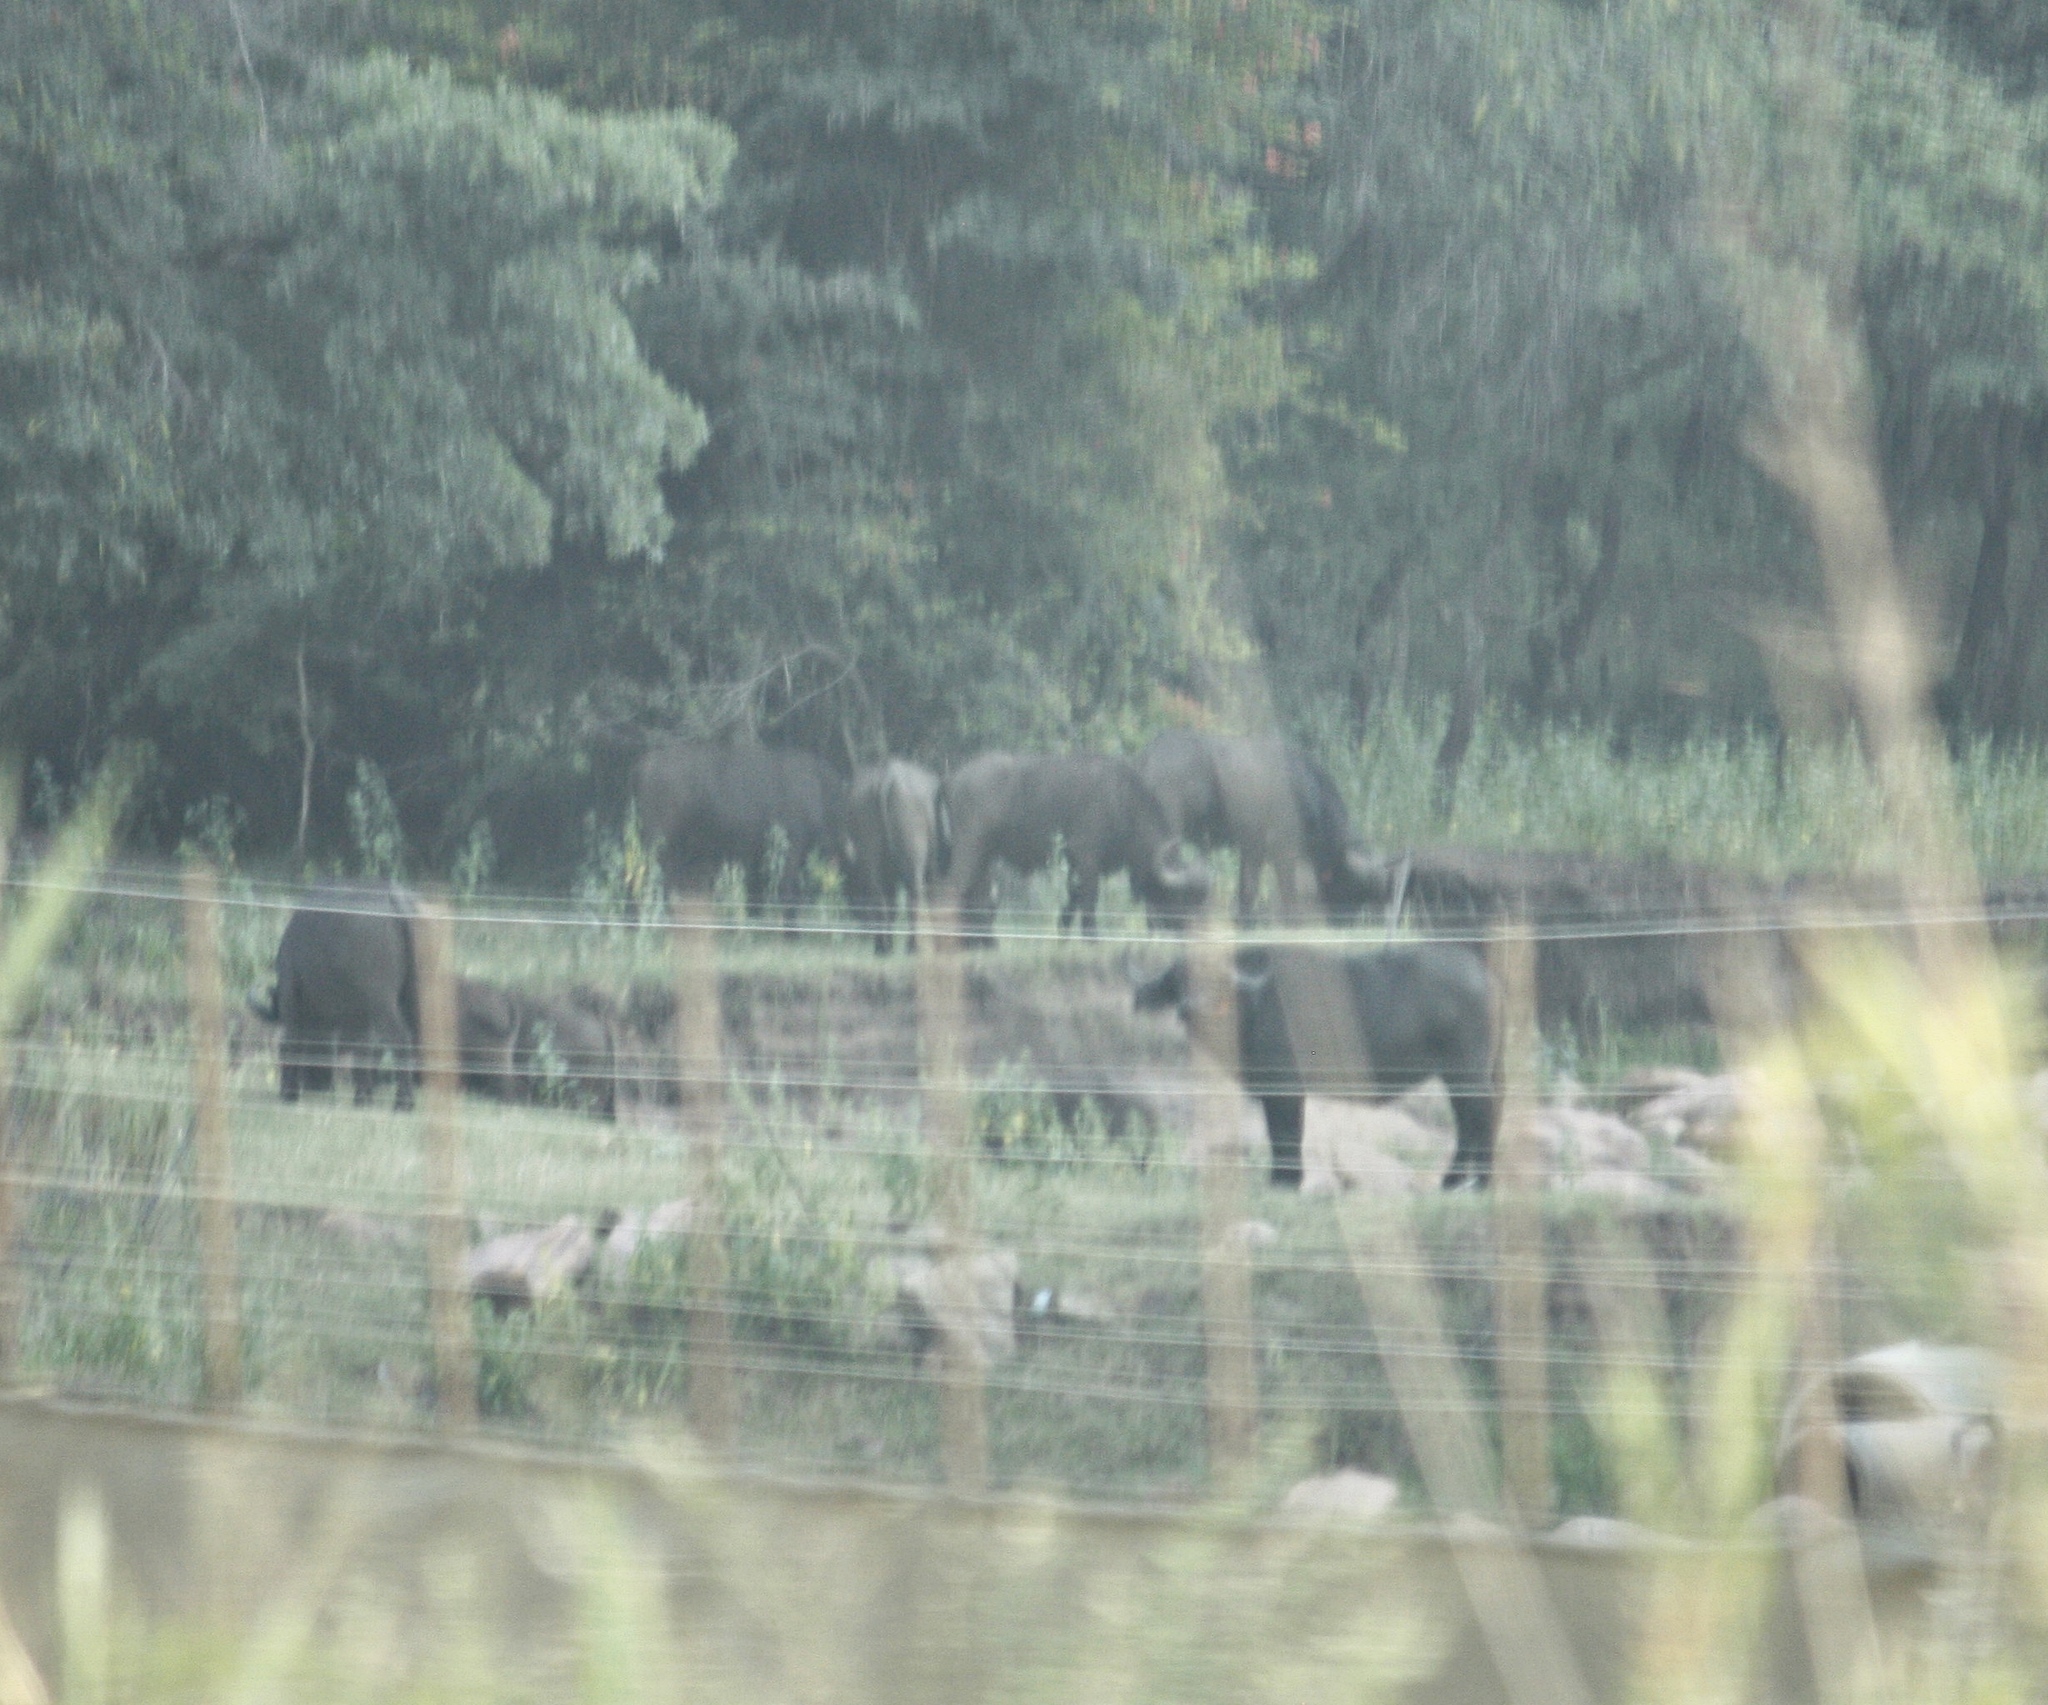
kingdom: Animalia
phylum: Chordata
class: Mammalia
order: Artiodactyla
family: Bovidae
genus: Syncerus
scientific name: Syncerus caffer
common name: African buffalo
